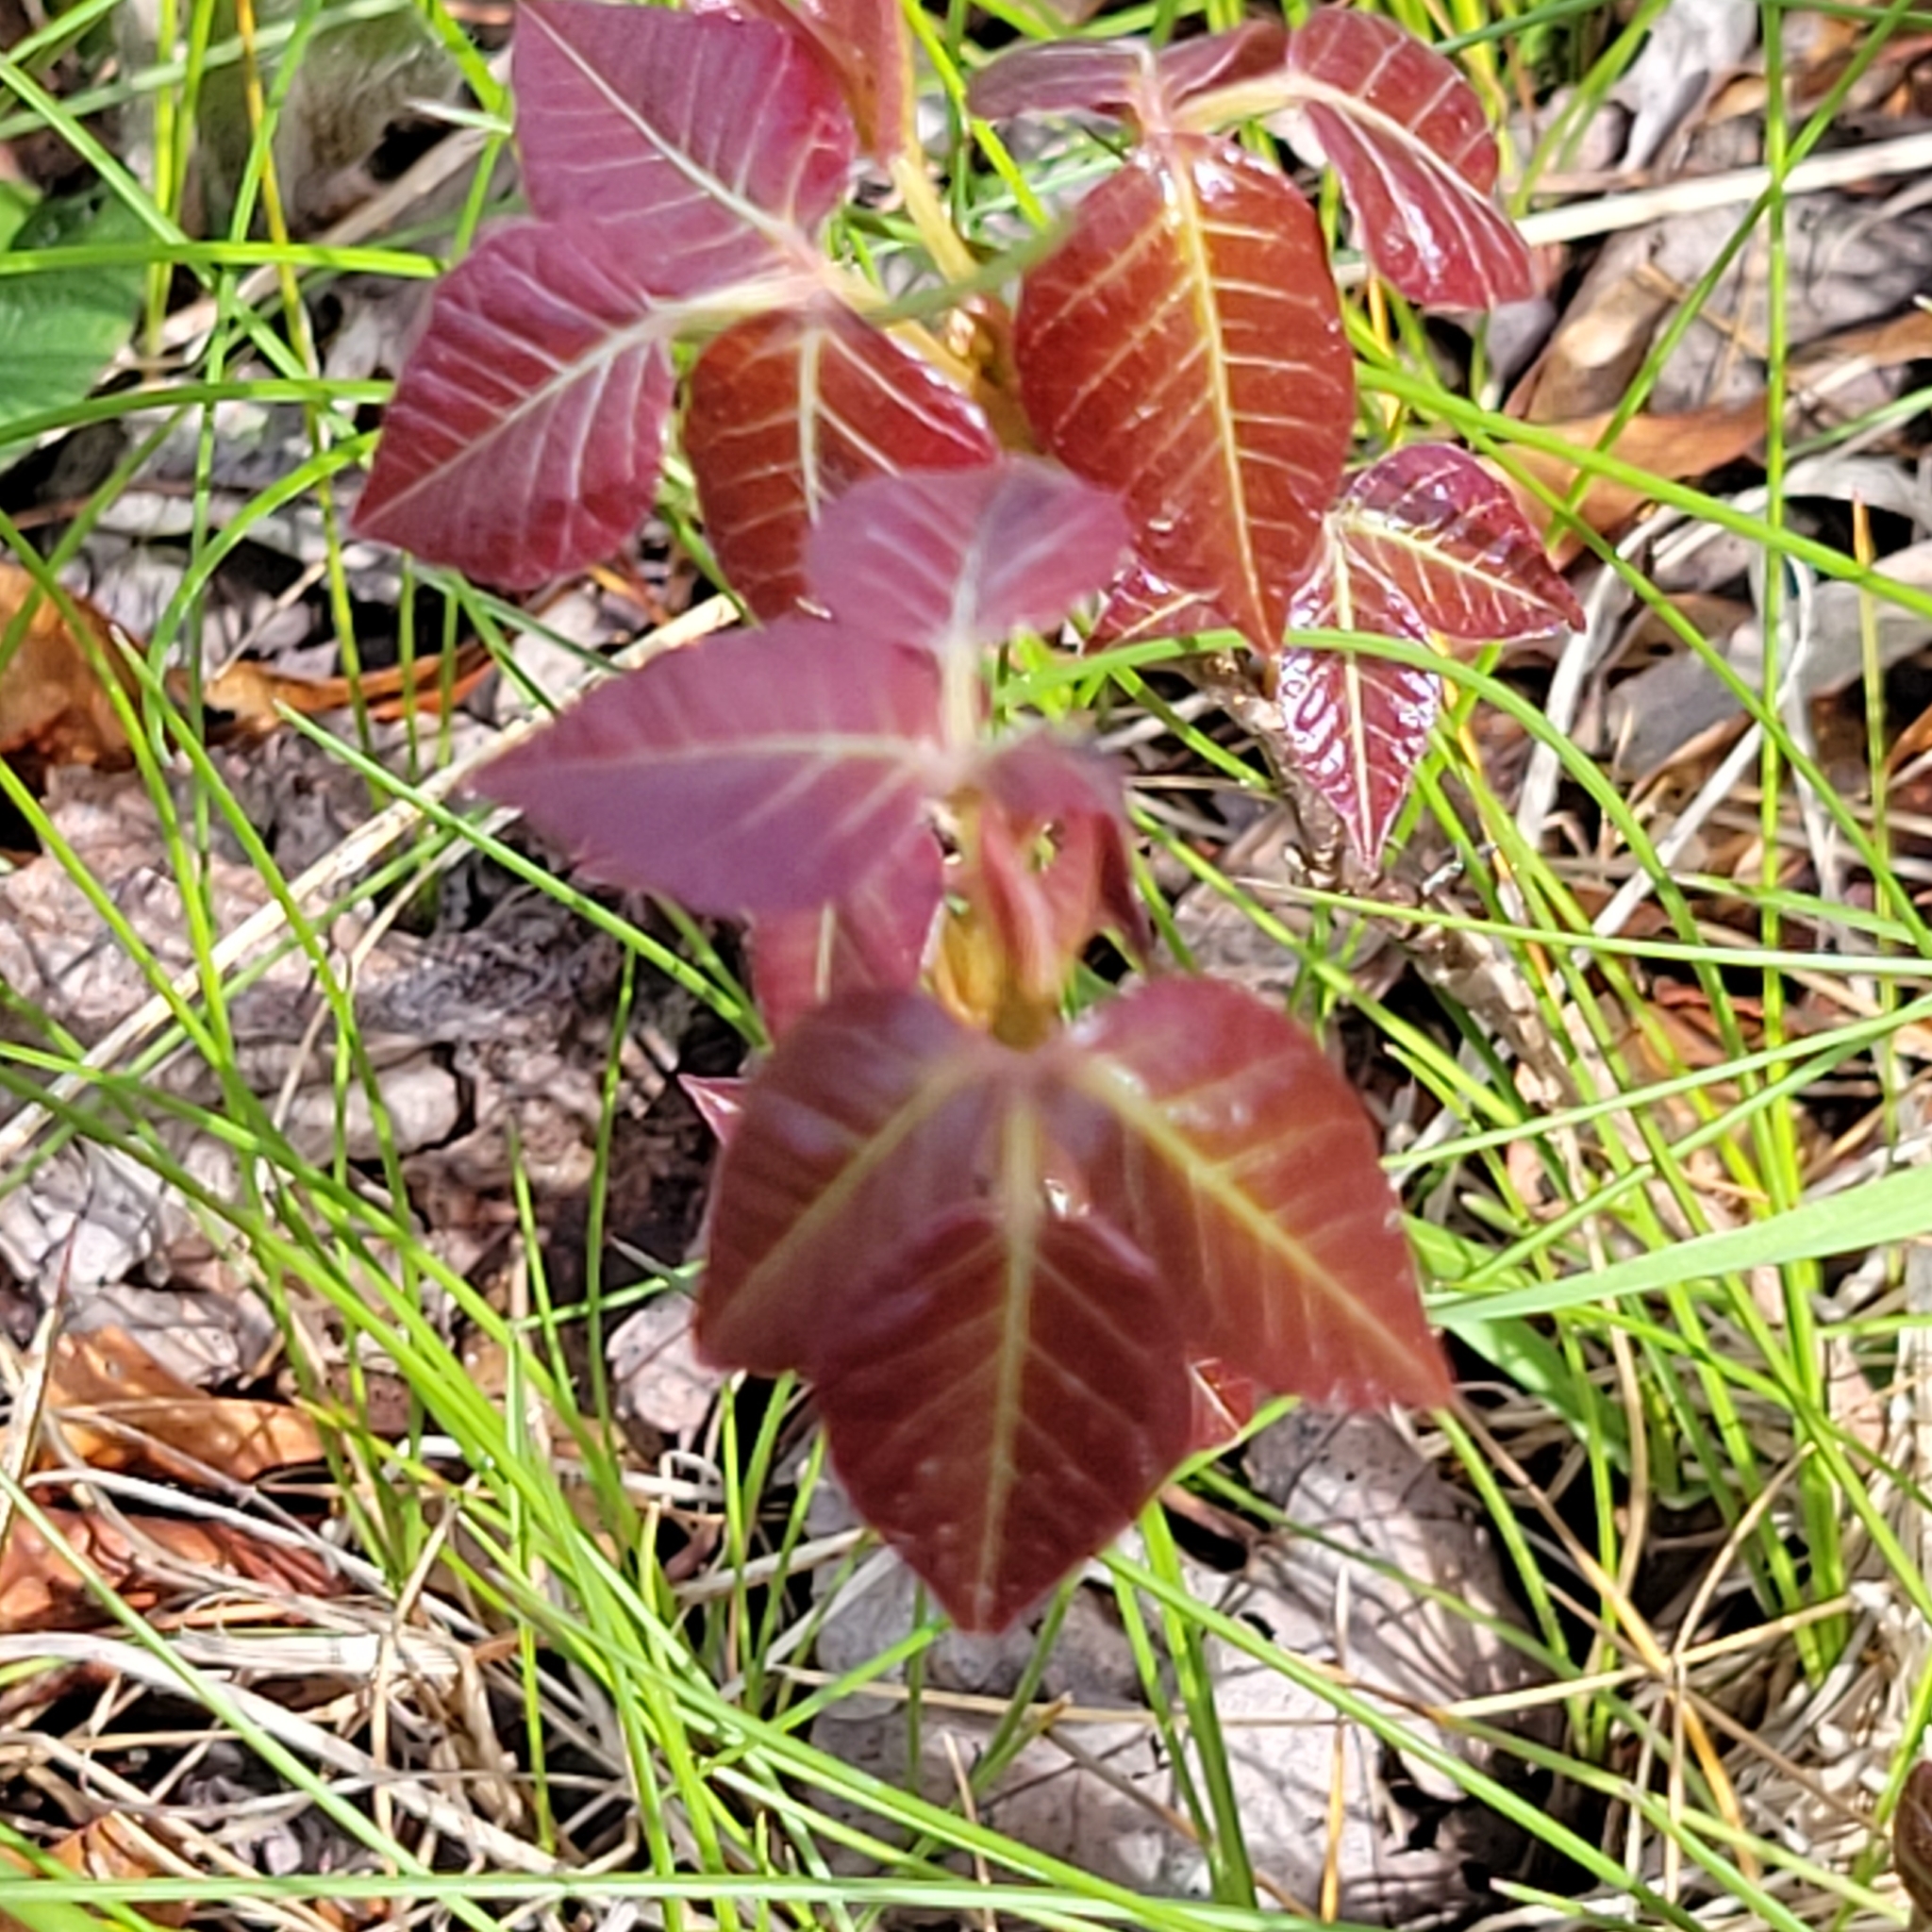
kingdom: Plantae
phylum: Tracheophyta
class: Magnoliopsida
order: Sapindales
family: Anacardiaceae
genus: Toxicodendron
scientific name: Toxicodendron radicans
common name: Poison ivy
